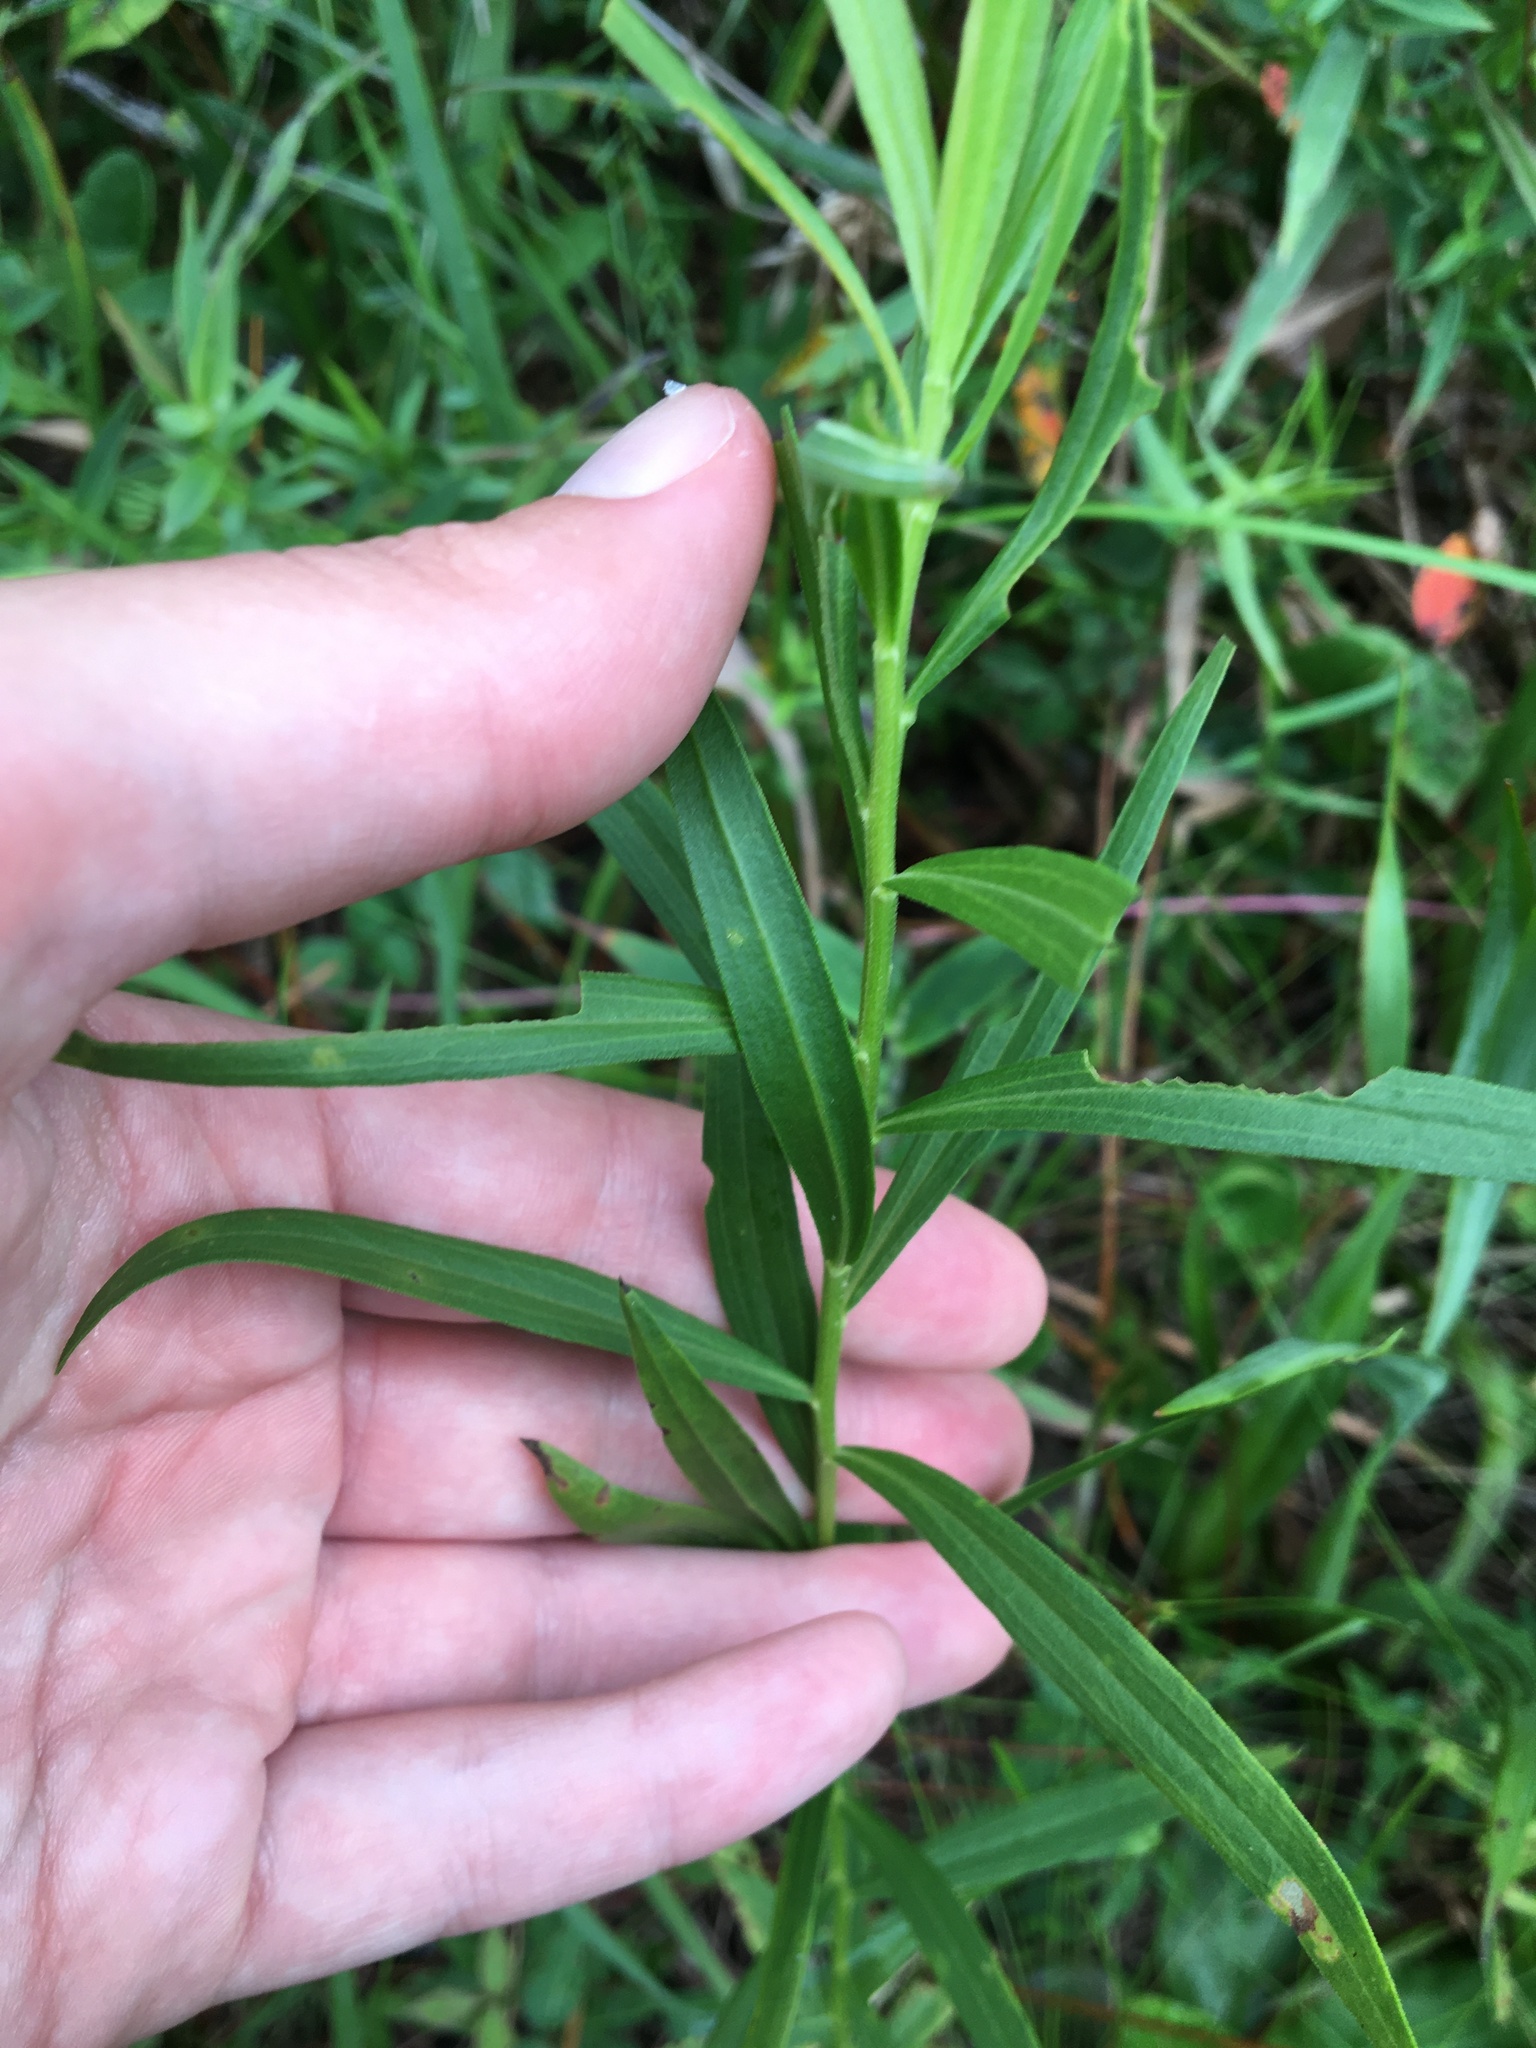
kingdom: Plantae
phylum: Tracheophyta
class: Magnoliopsida
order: Asterales
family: Asteraceae
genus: Euthamia
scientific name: Euthamia scabra
